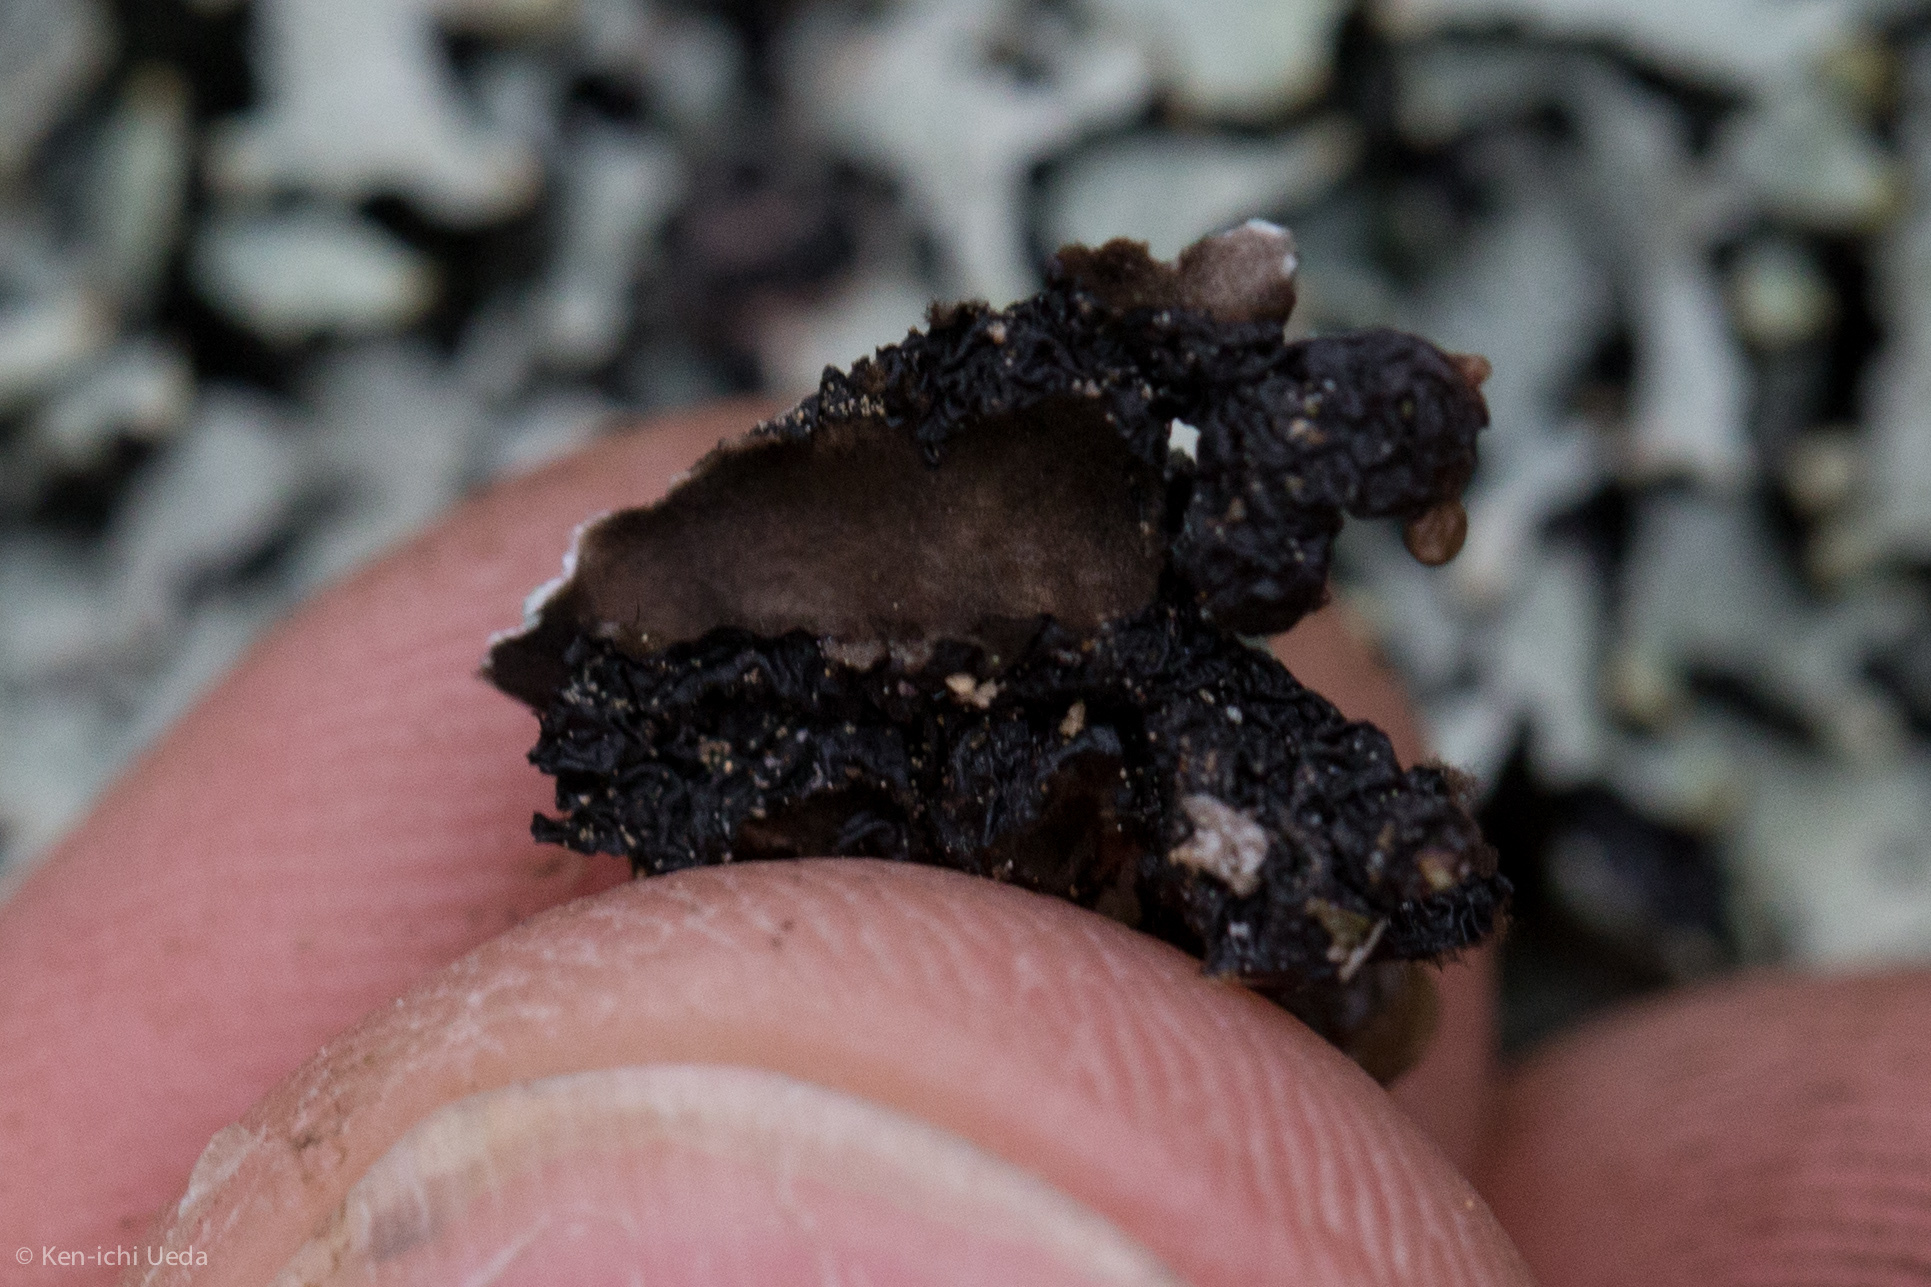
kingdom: Fungi
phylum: Ascomycota
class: Lecanoromycetes
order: Lecanorales
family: Parmeliaceae
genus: Hypogymnia
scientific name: Hypogymnia enteromorpha
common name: Beaded tube lichen
